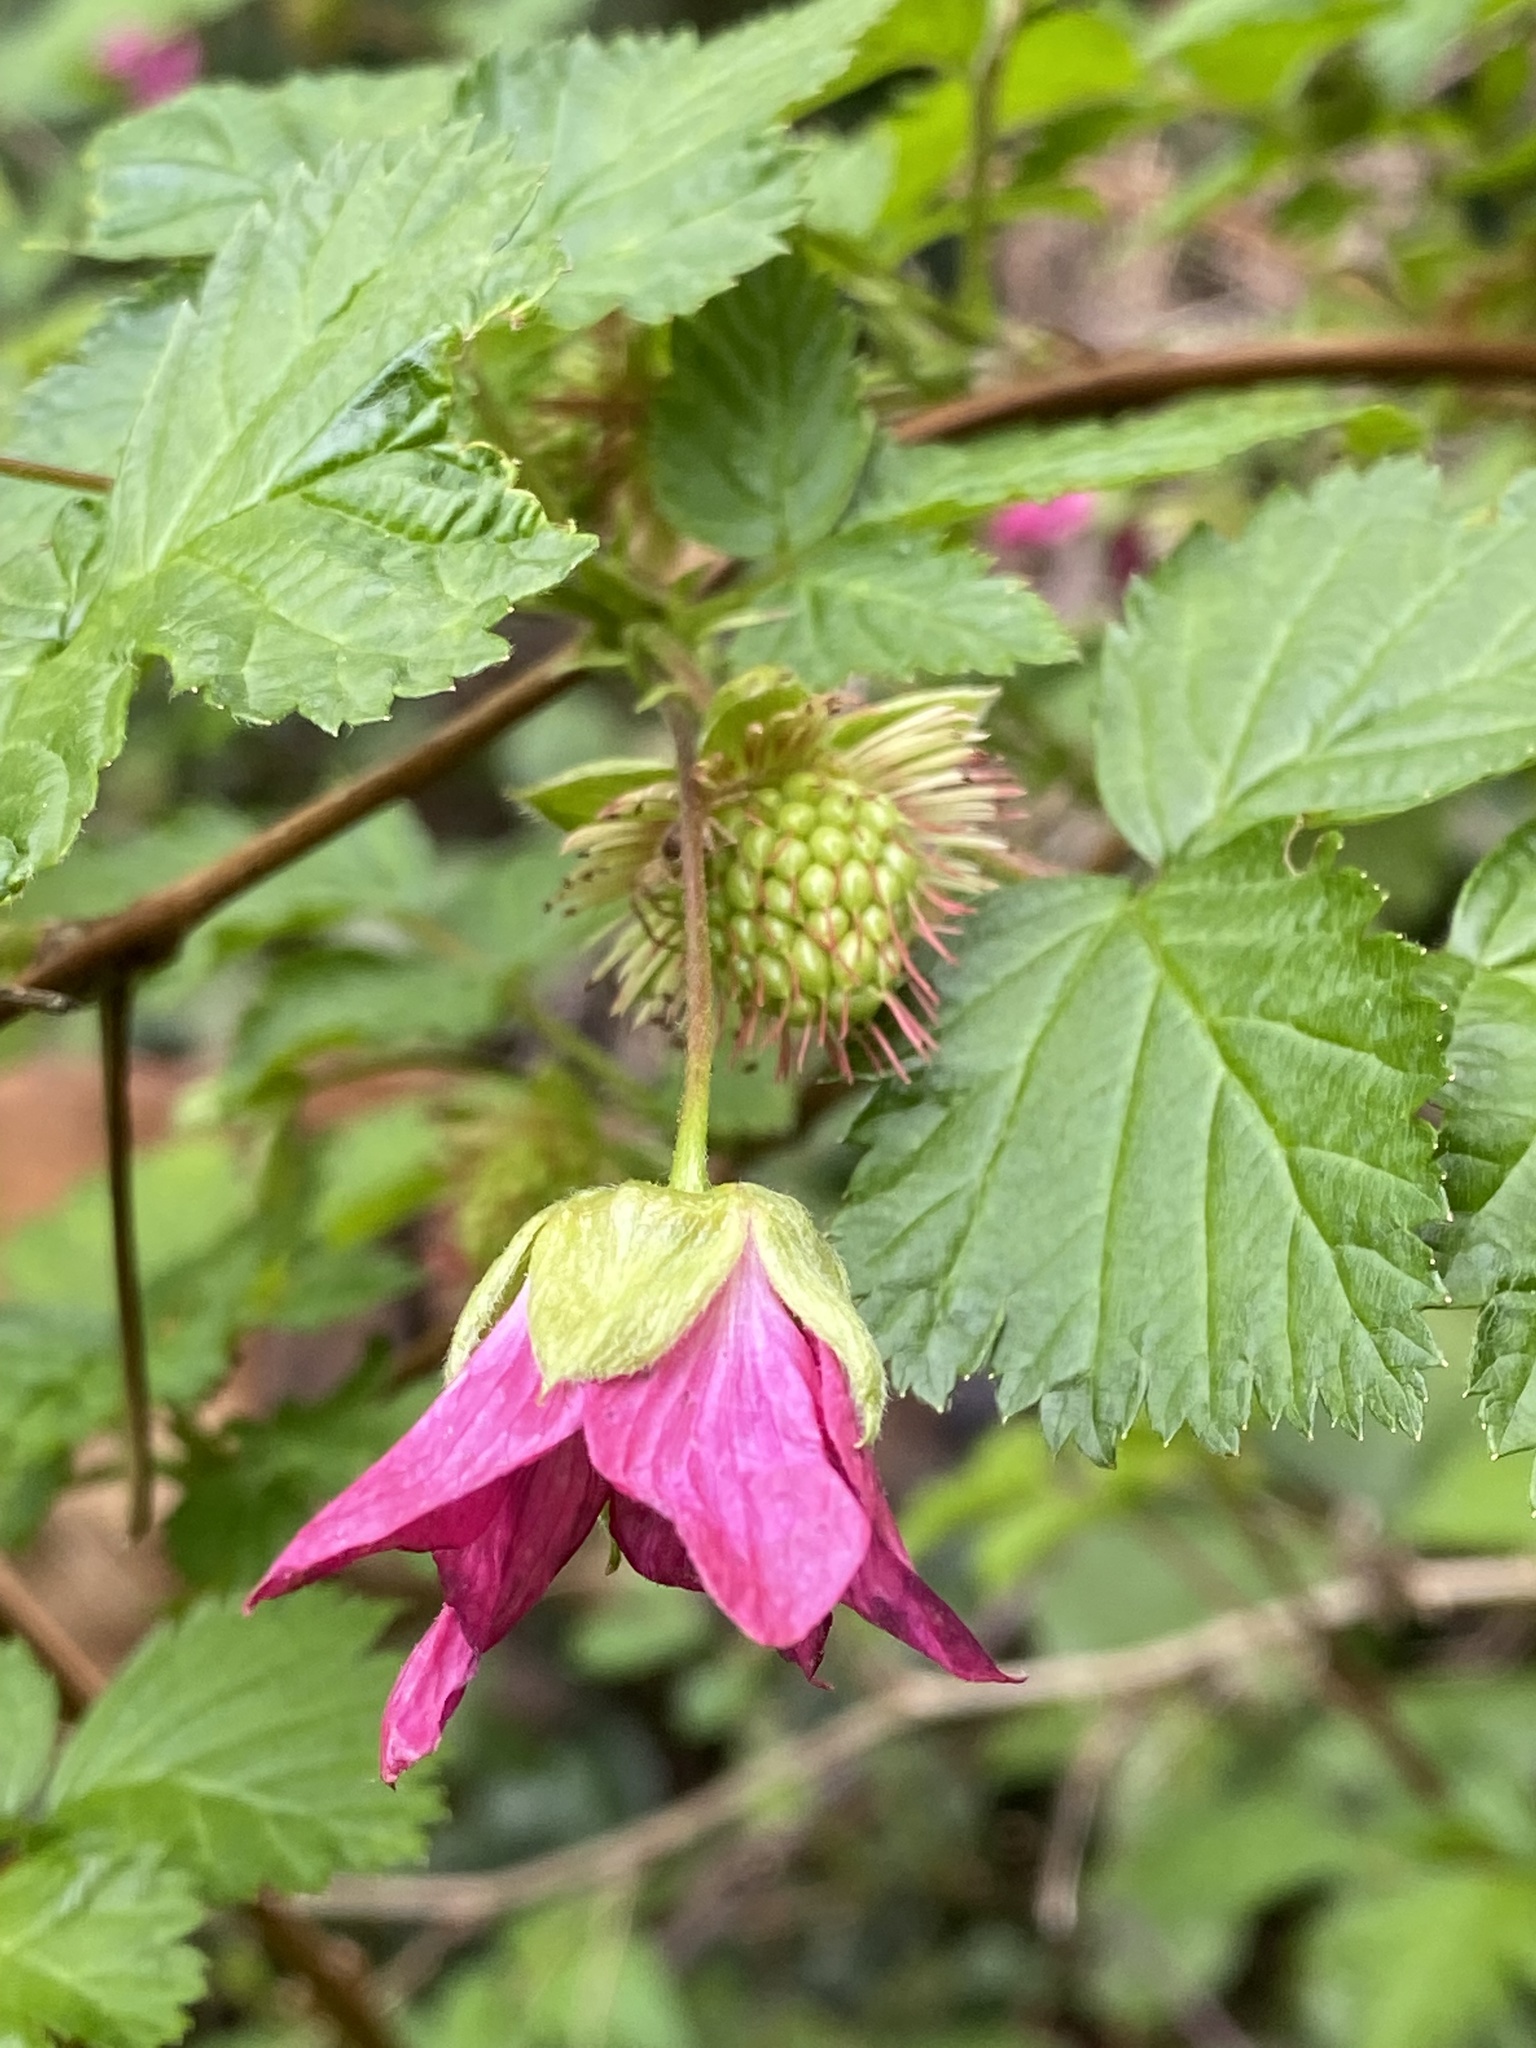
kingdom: Plantae
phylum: Tracheophyta
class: Magnoliopsida
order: Rosales
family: Rosaceae
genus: Rubus
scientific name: Rubus spectabilis
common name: Salmonberry
